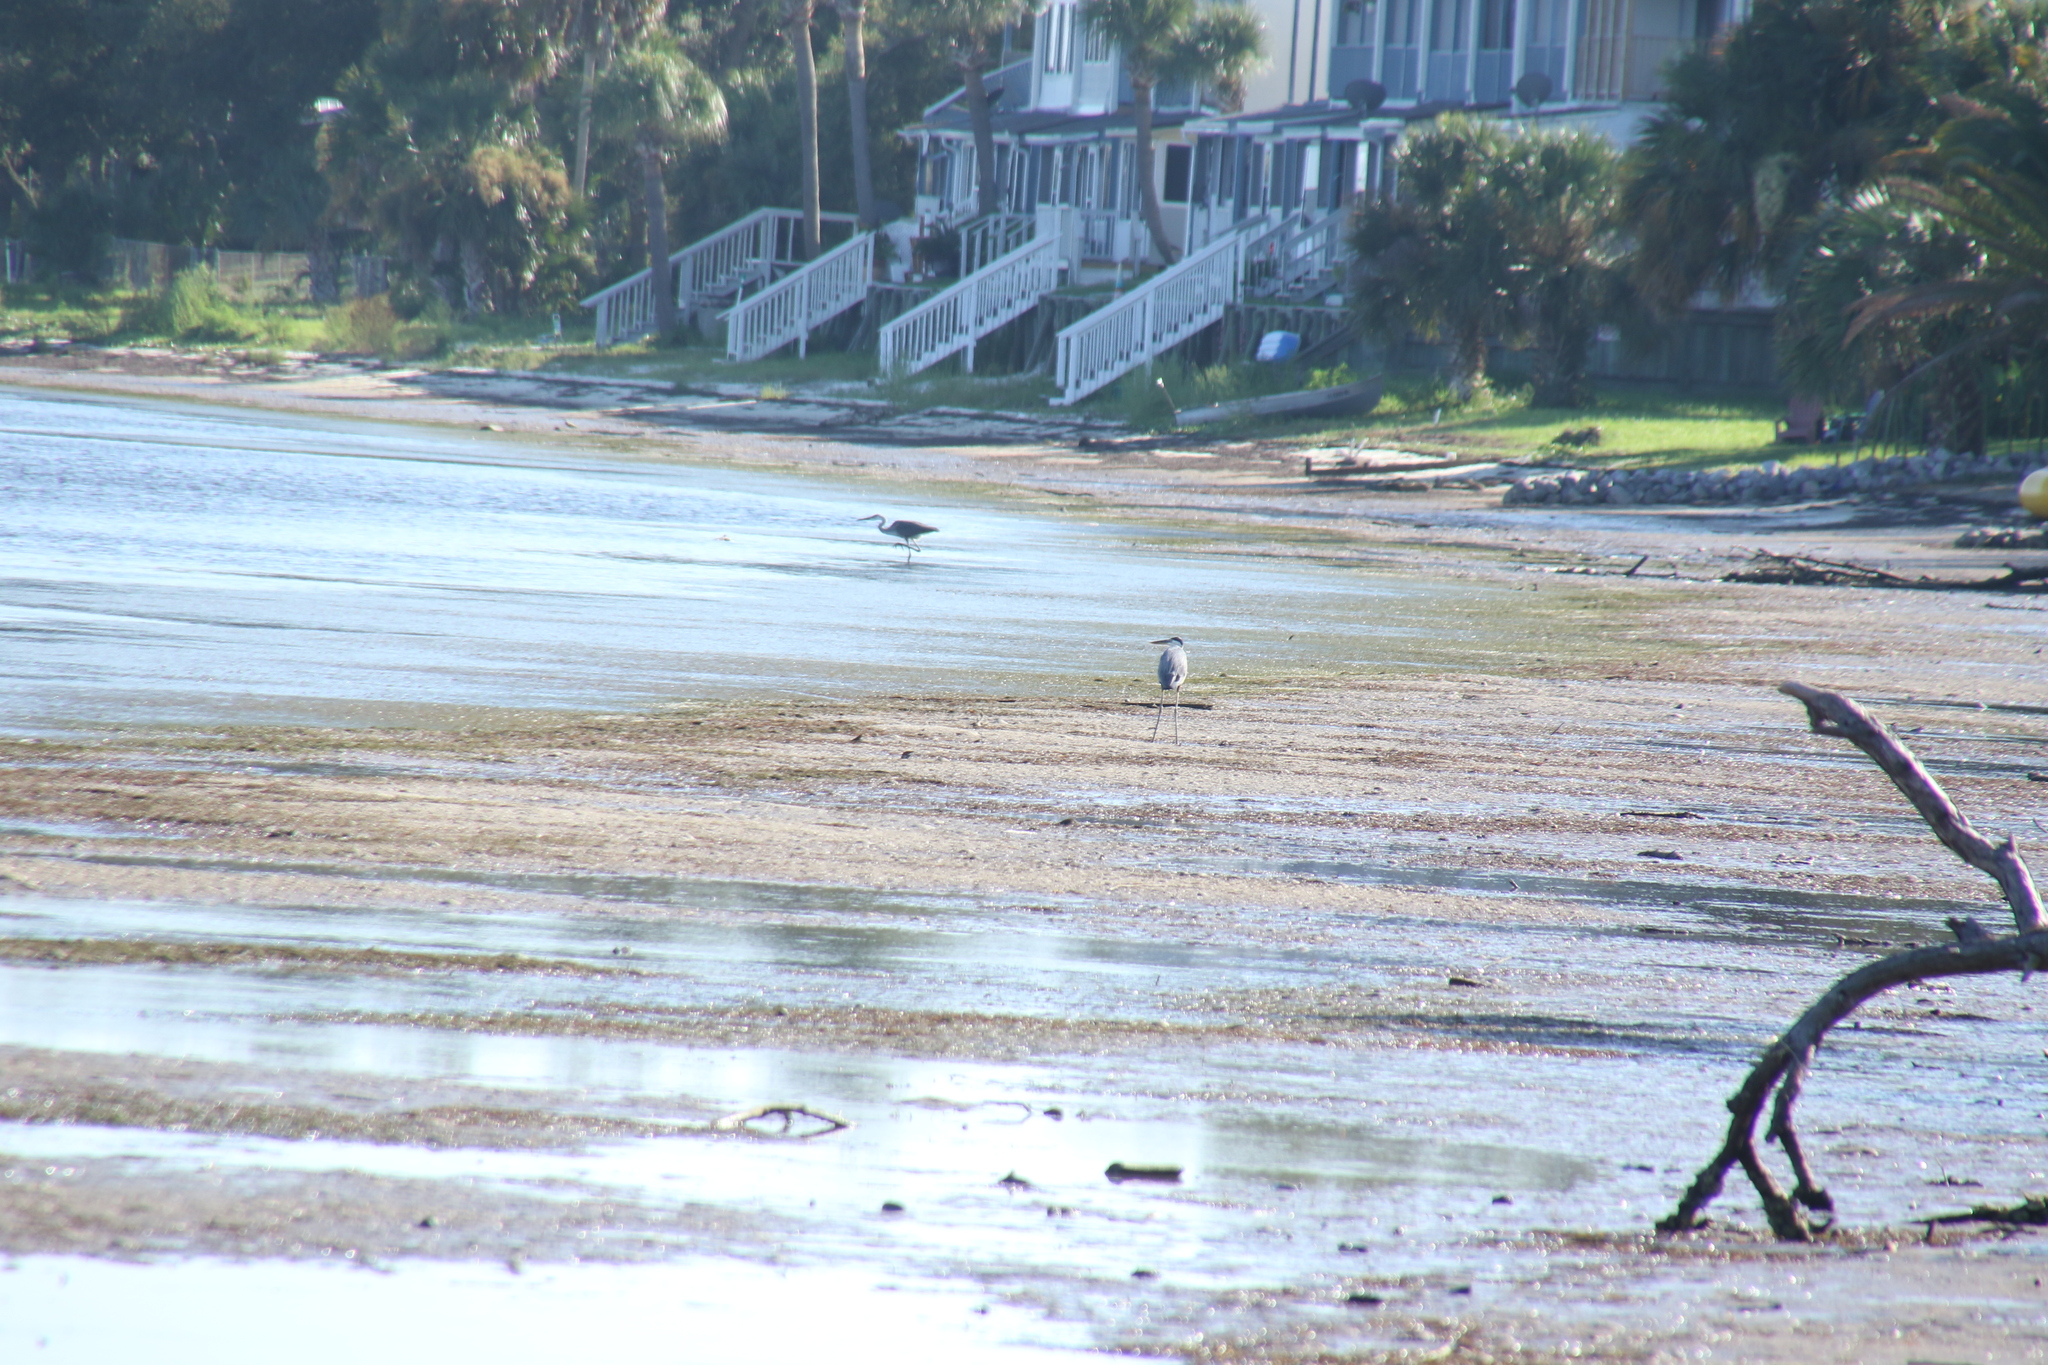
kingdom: Animalia
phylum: Chordata
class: Aves
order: Pelecaniformes
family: Ardeidae
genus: Ardea
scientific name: Ardea herodias
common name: Great blue heron
